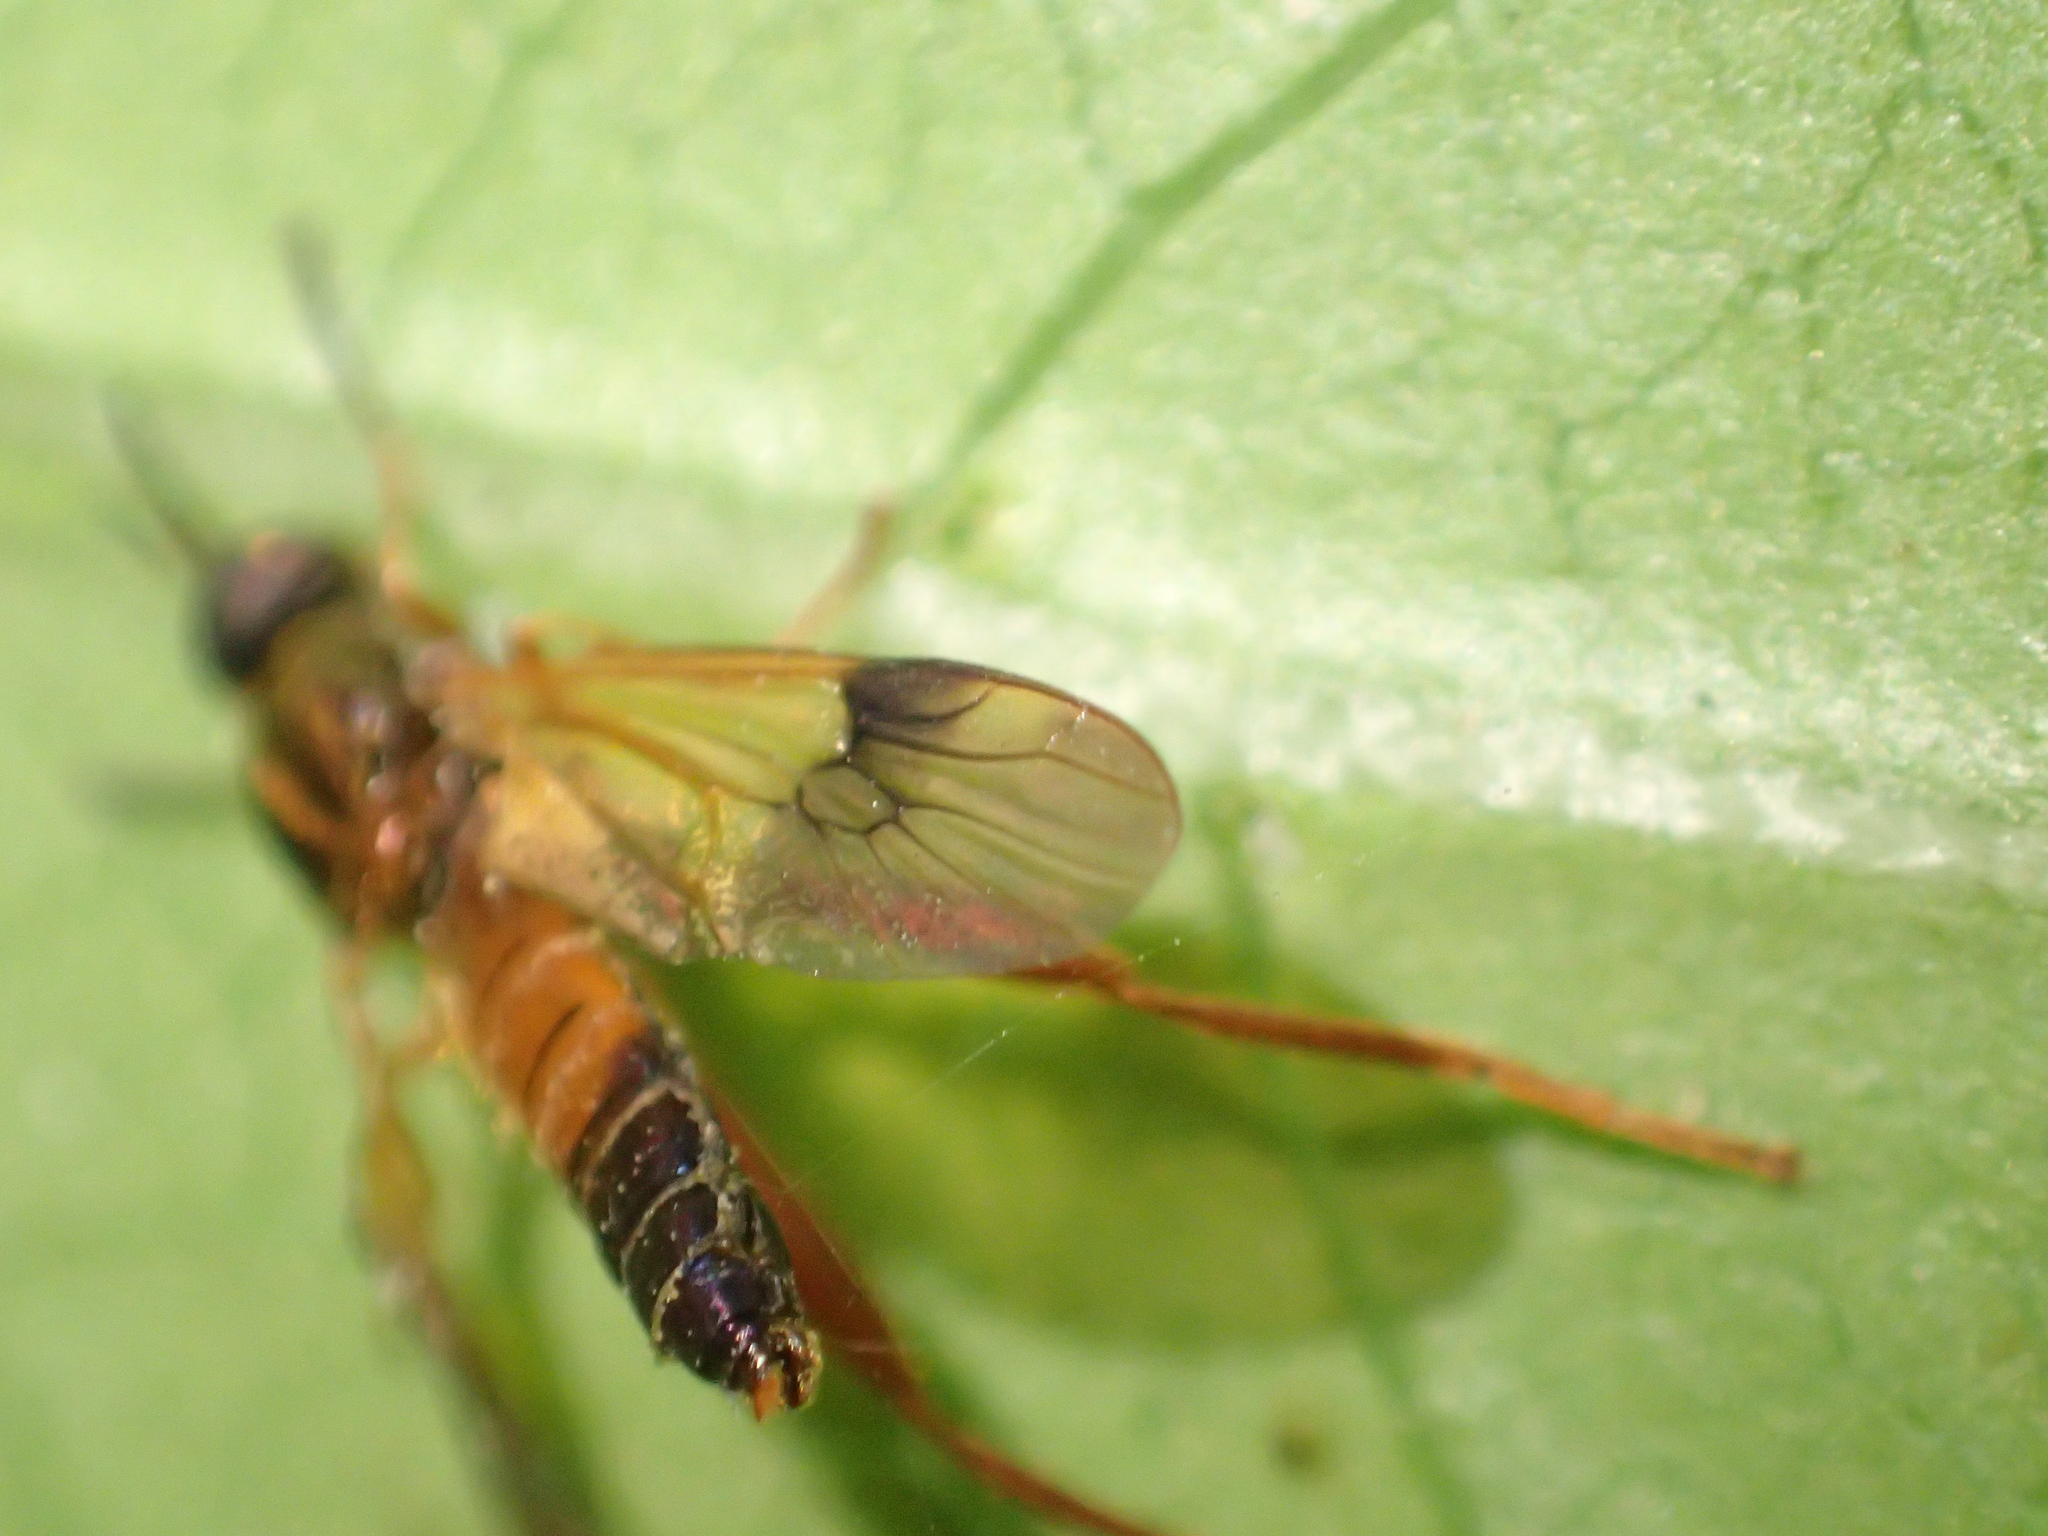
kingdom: Animalia
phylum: Arthropoda
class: Insecta
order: Diptera
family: Stratiomyidae
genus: Benhamyia
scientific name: Benhamyia apicalis
